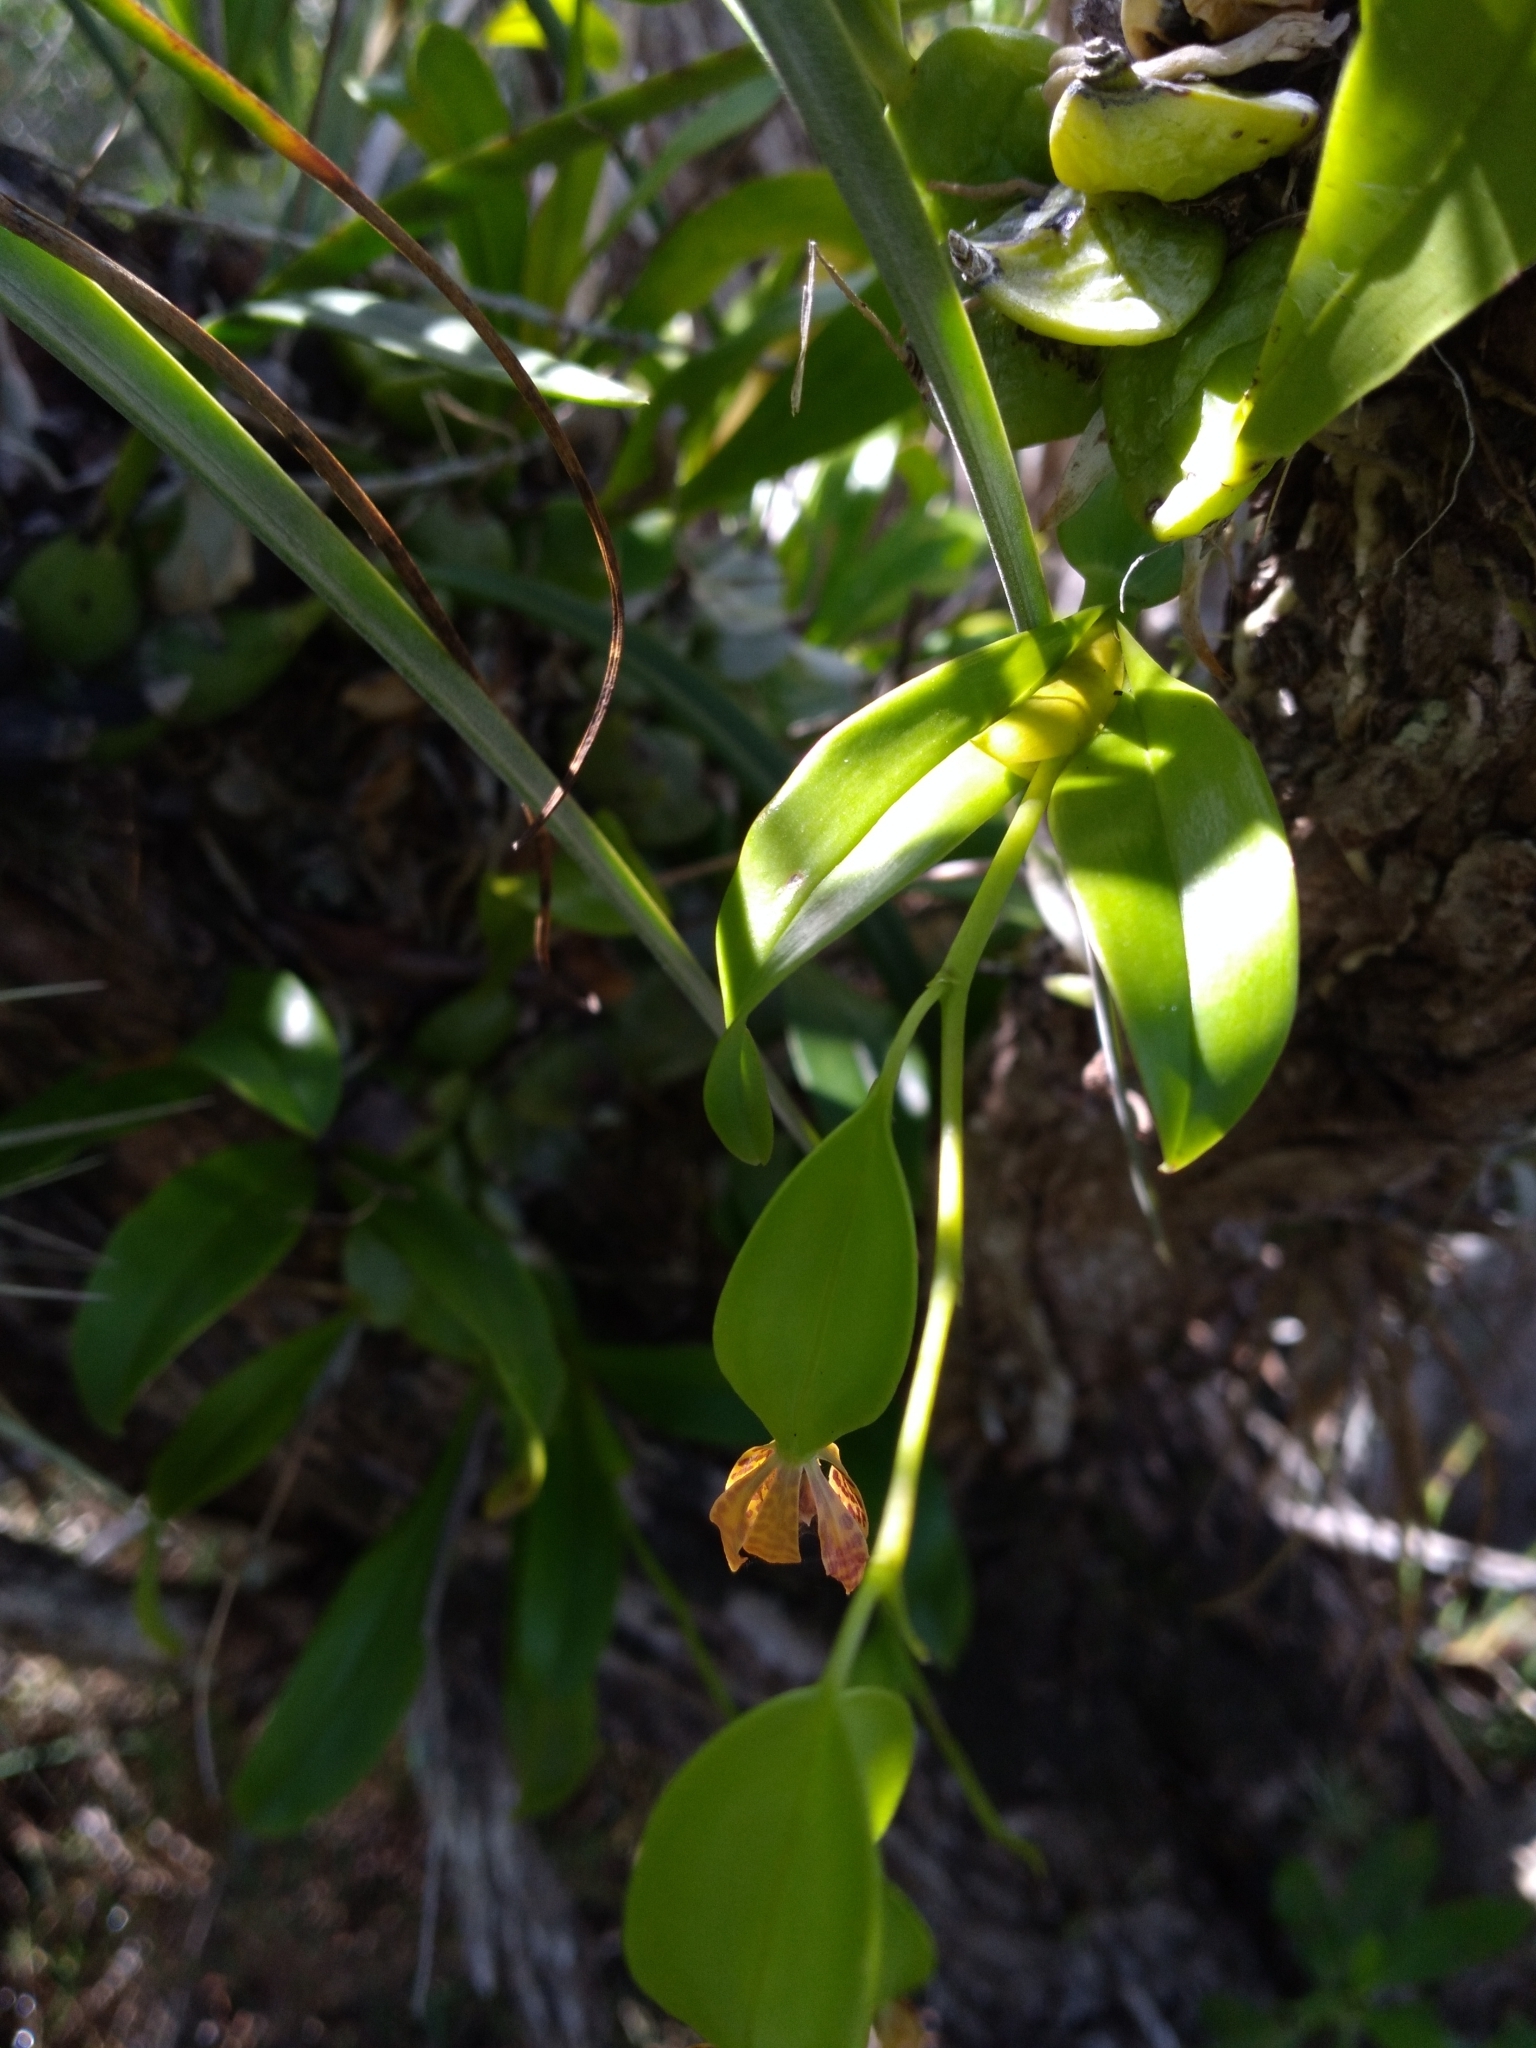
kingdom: Plantae
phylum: Tracheophyta
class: Liliopsida
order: Asparagales
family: Orchidaceae
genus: Prosthechea
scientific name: Prosthechea boothiana
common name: Dollar orchid
